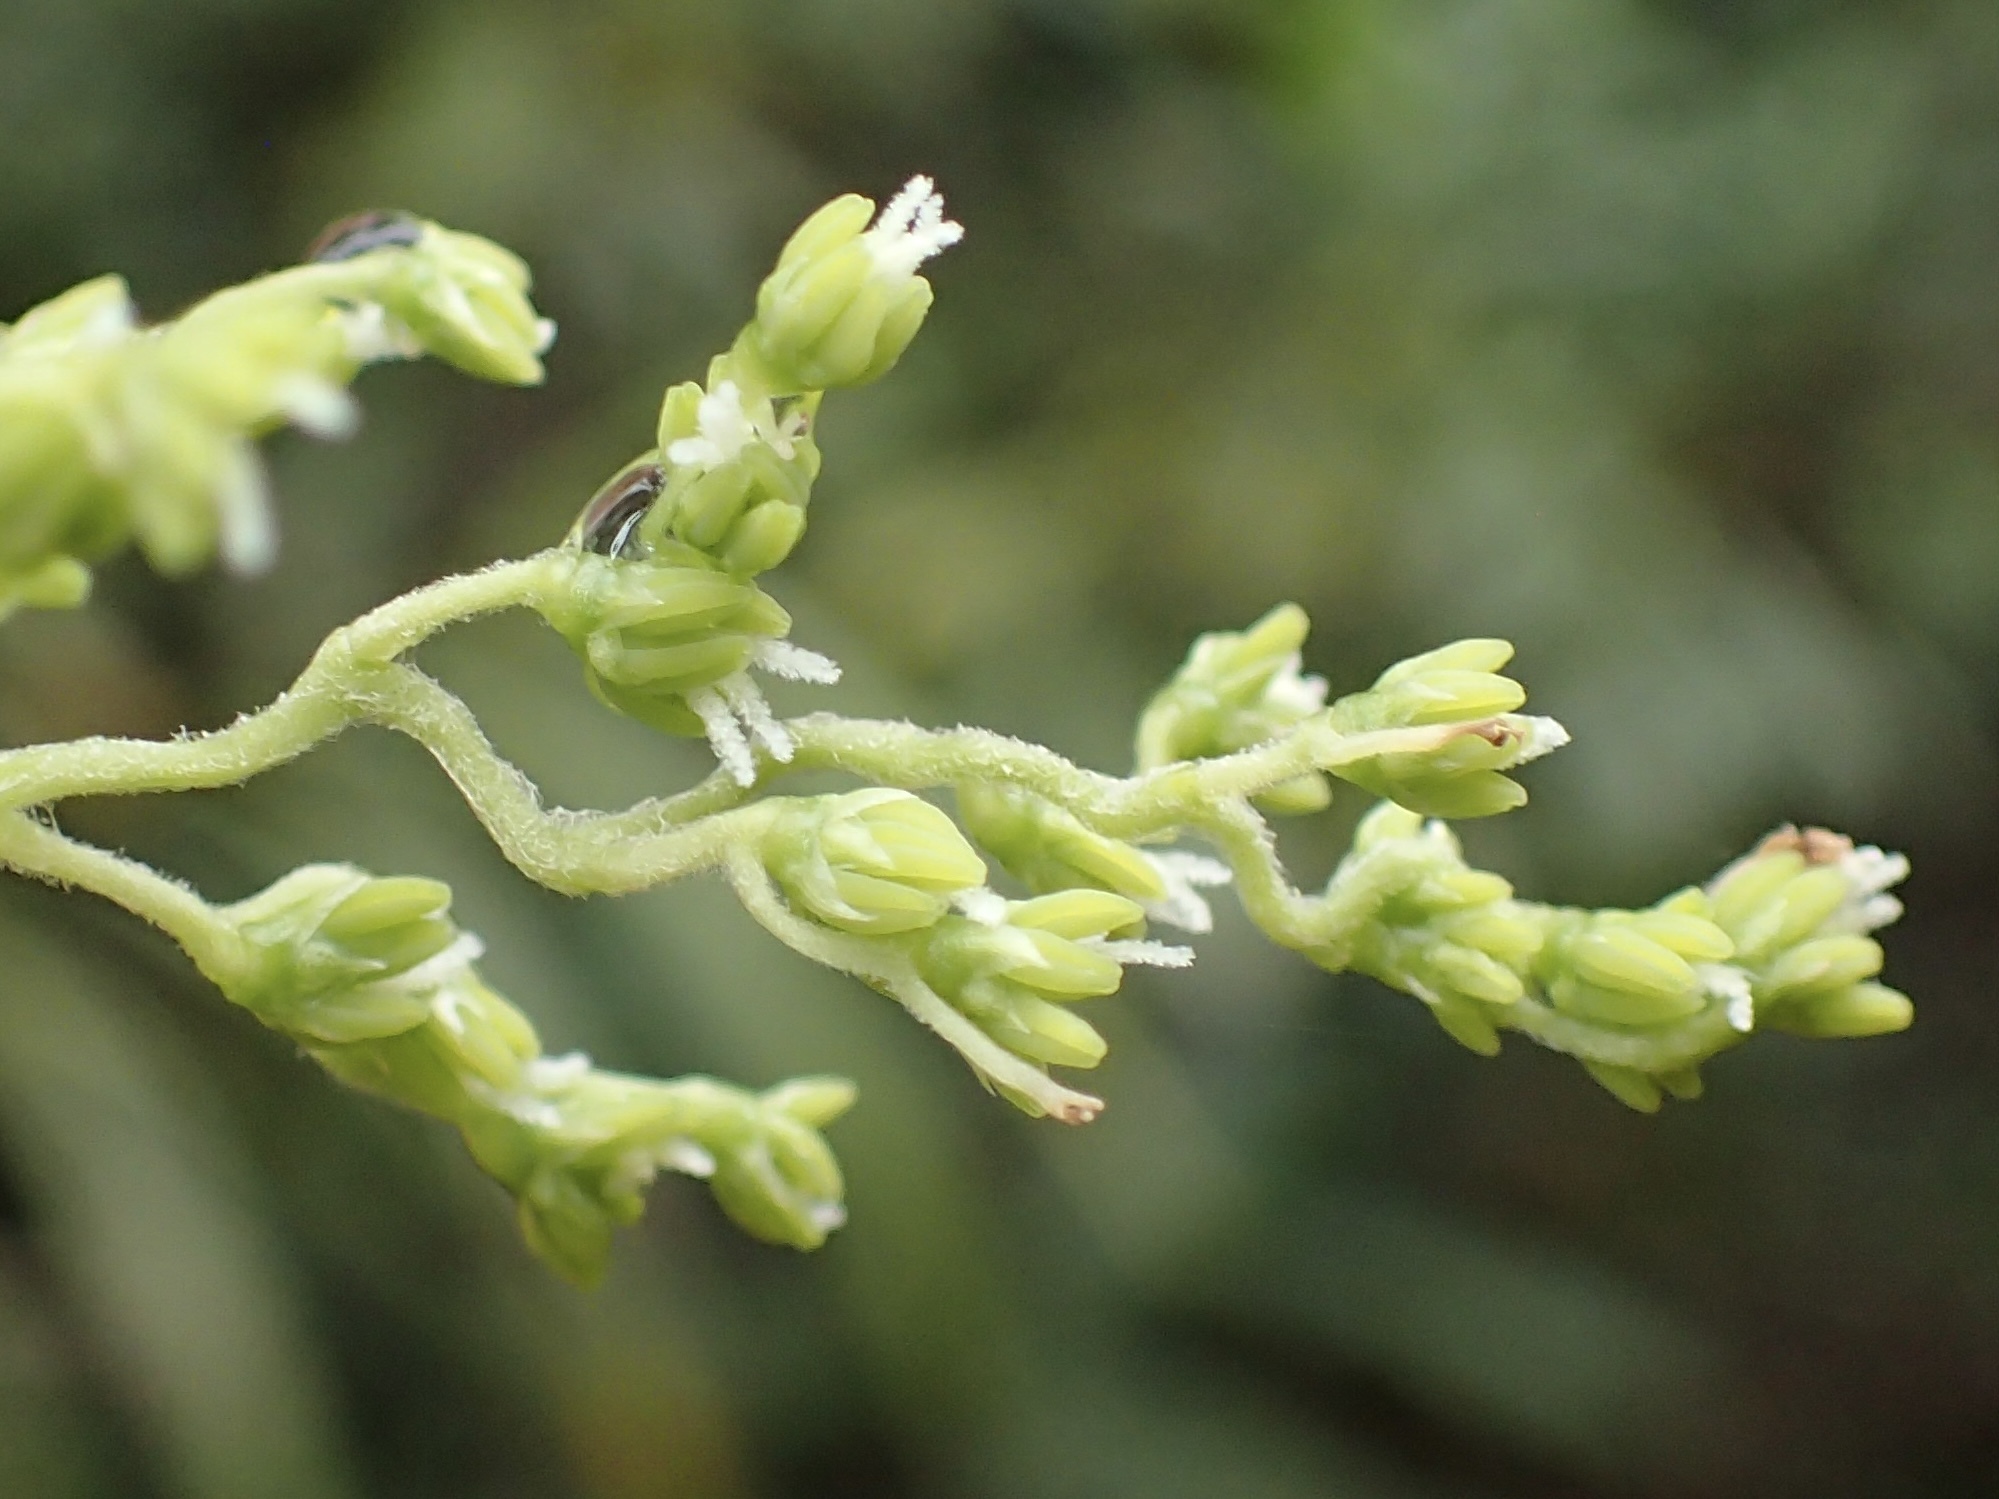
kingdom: Plantae
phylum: Tracheophyta
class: Liliopsida
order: Poales
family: Joinvilleaceae
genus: Joinvillea
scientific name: Joinvillea plicata
